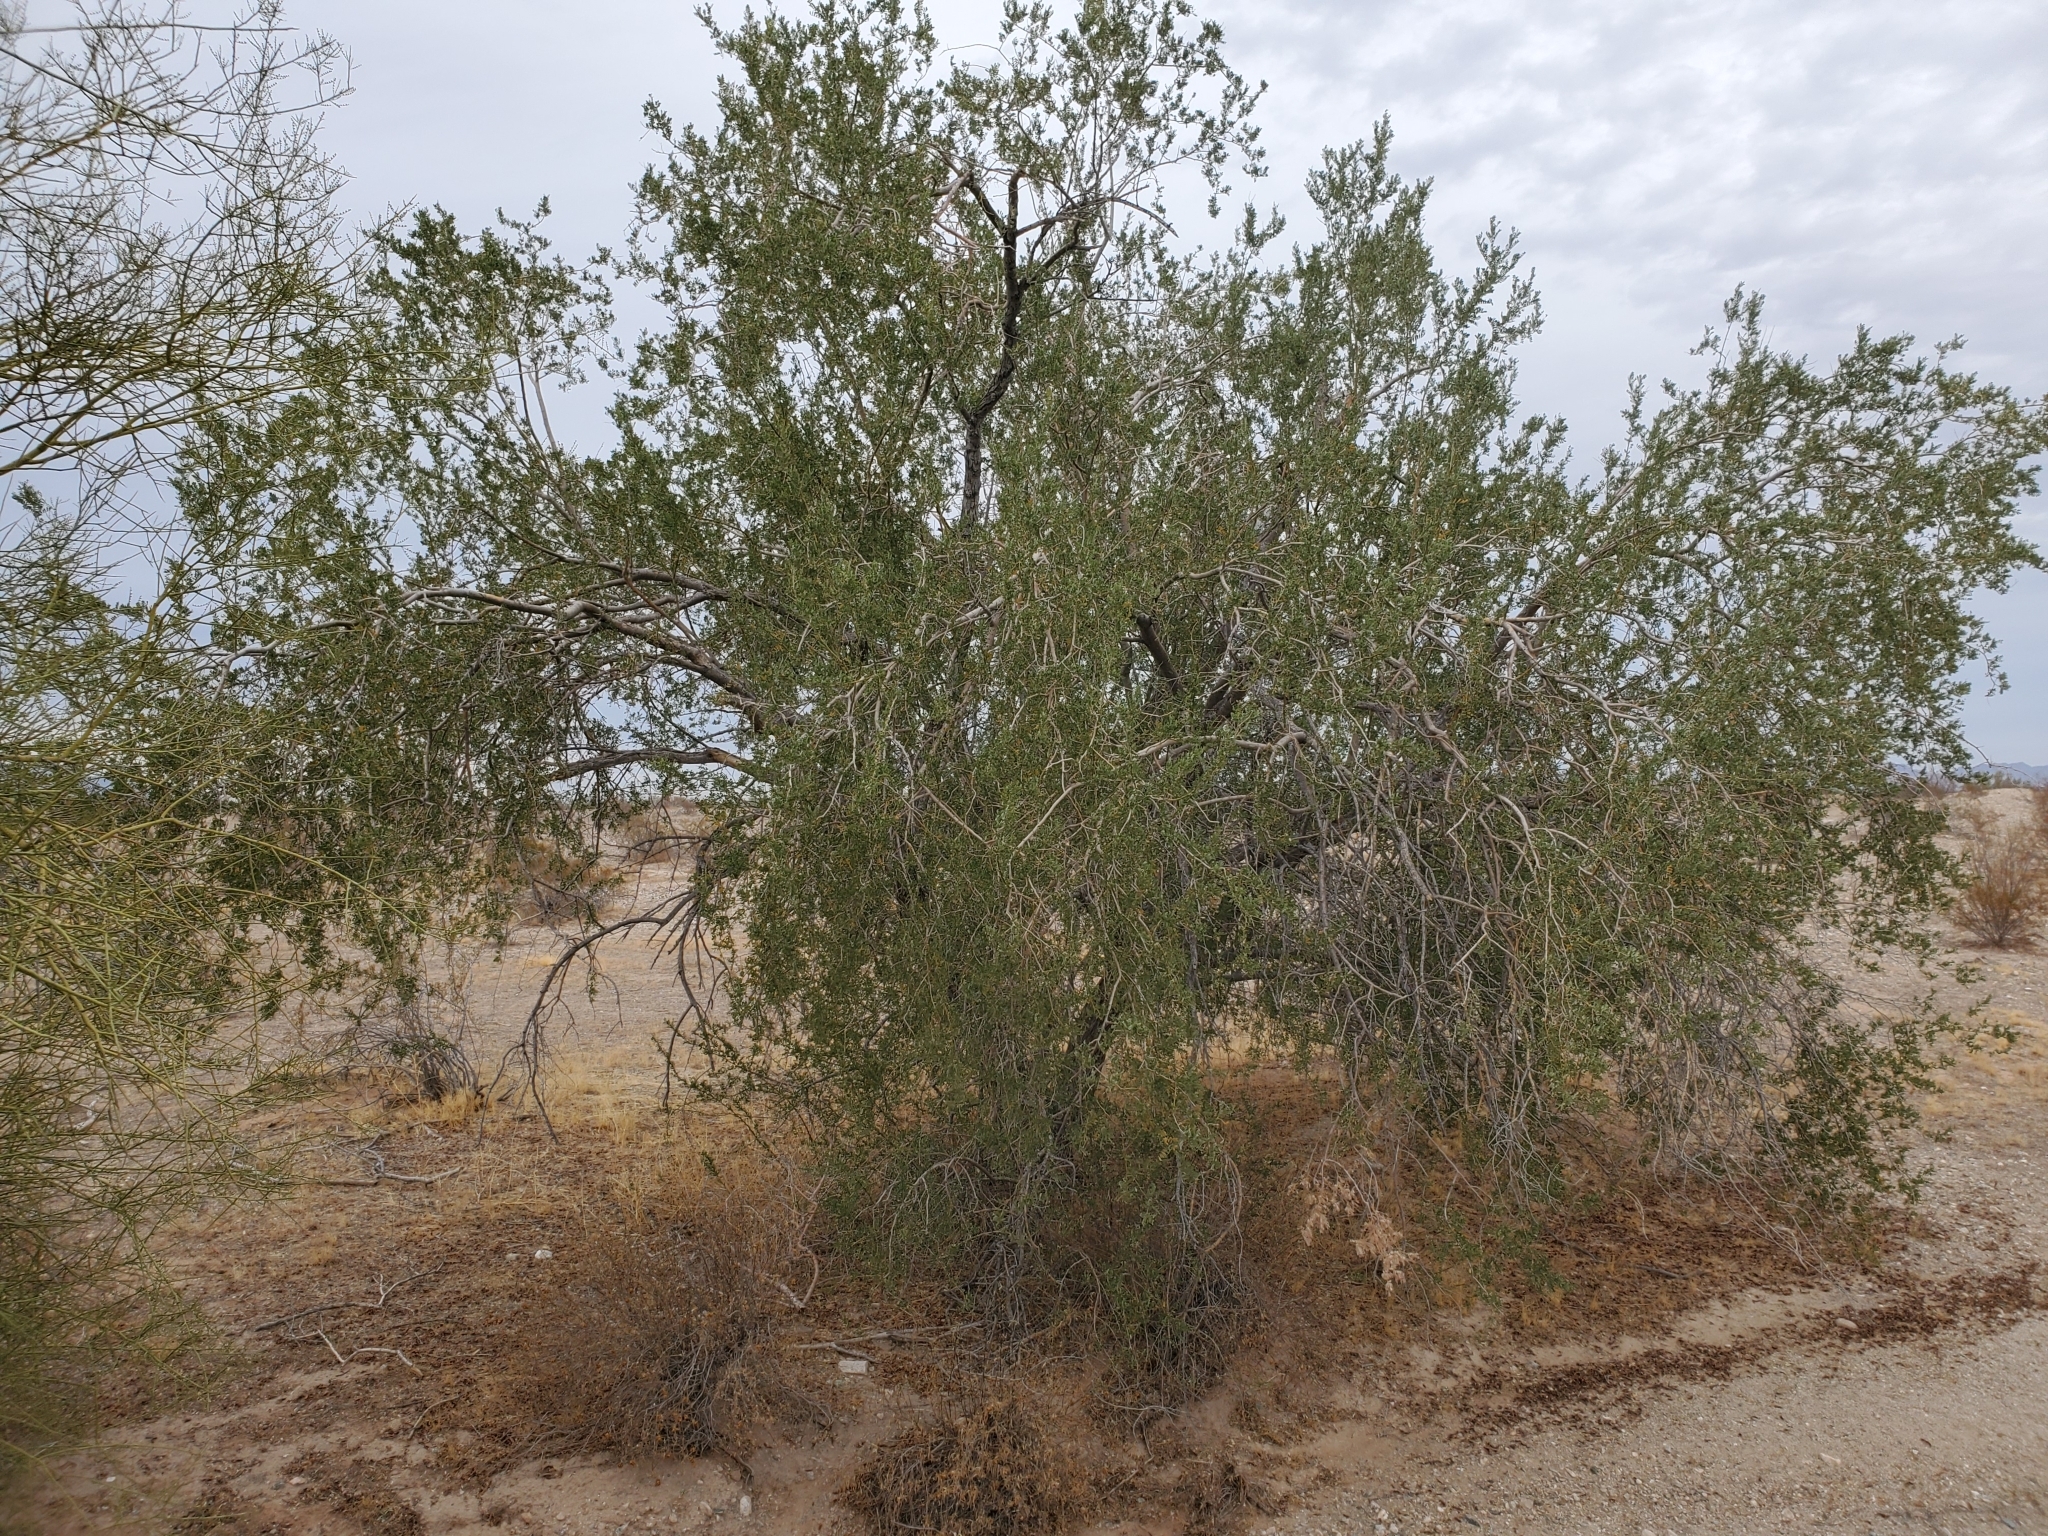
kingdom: Plantae
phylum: Tracheophyta
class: Magnoliopsida
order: Fabales
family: Fabaceae
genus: Olneya
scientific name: Olneya tesota
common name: Desert ironwood
